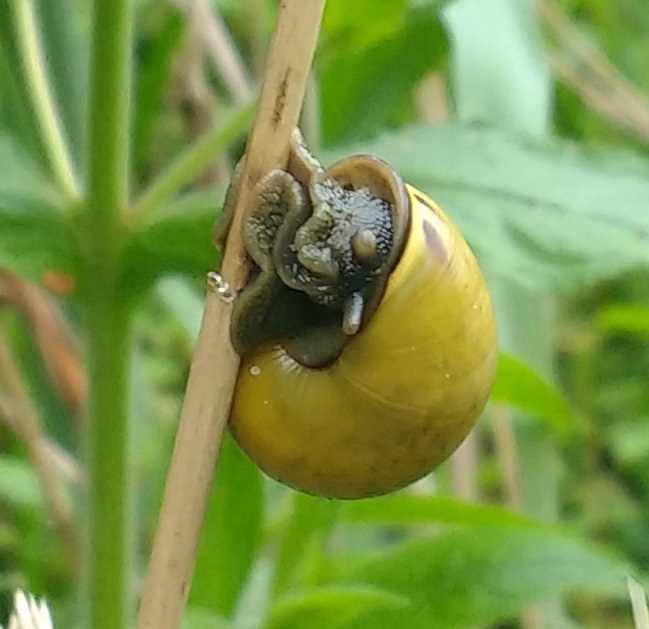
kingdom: Animalia
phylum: Mollusca
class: Gastropoda
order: Stylommatophora
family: Helicidae
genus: Cepaea
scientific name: Cepaea nemoralis
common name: Grovesnail
